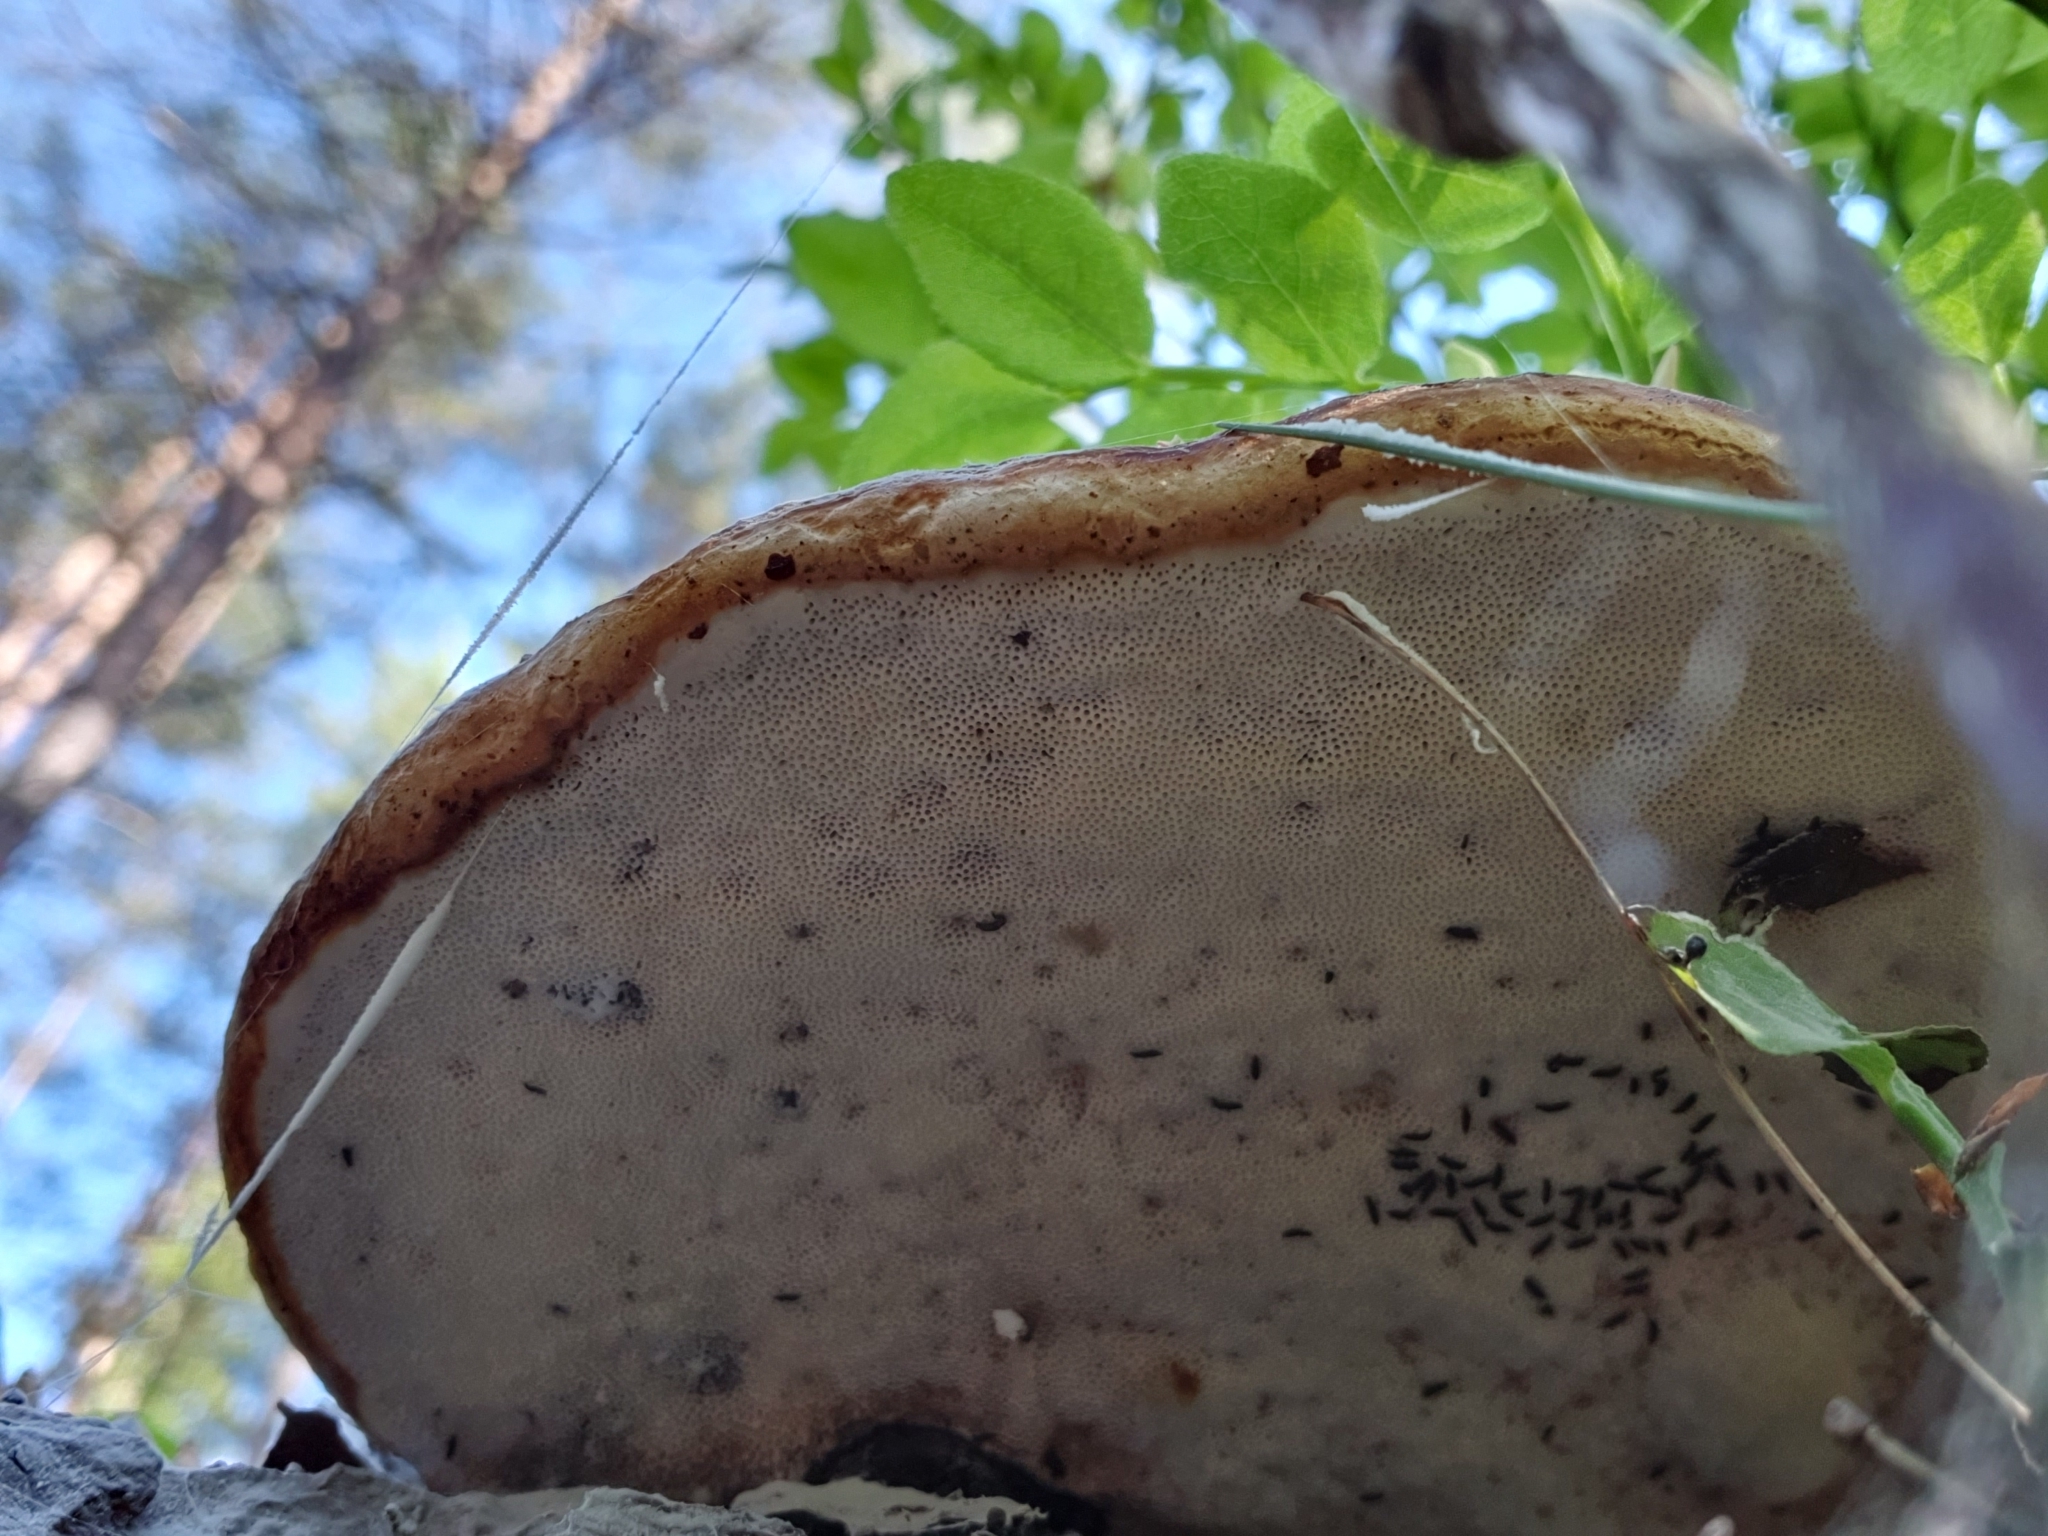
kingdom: Fungi
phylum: Basidiomycota
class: Agaricomycetes
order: Polyporales
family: Fomitopsidaceae
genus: Fomitopsis
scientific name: Fomitopsis pinicola
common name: Red-belted bracket
